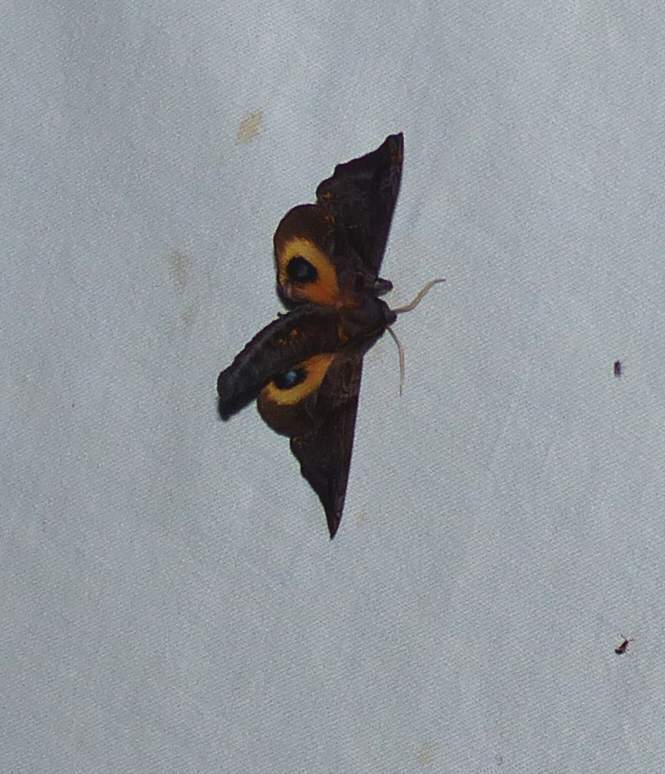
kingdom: Animalia
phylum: Arthropoda
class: Insecta
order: Lepidoptera
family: Sphingidae
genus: Paonias
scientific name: Paonias myops
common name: Small-eyed sphinx
